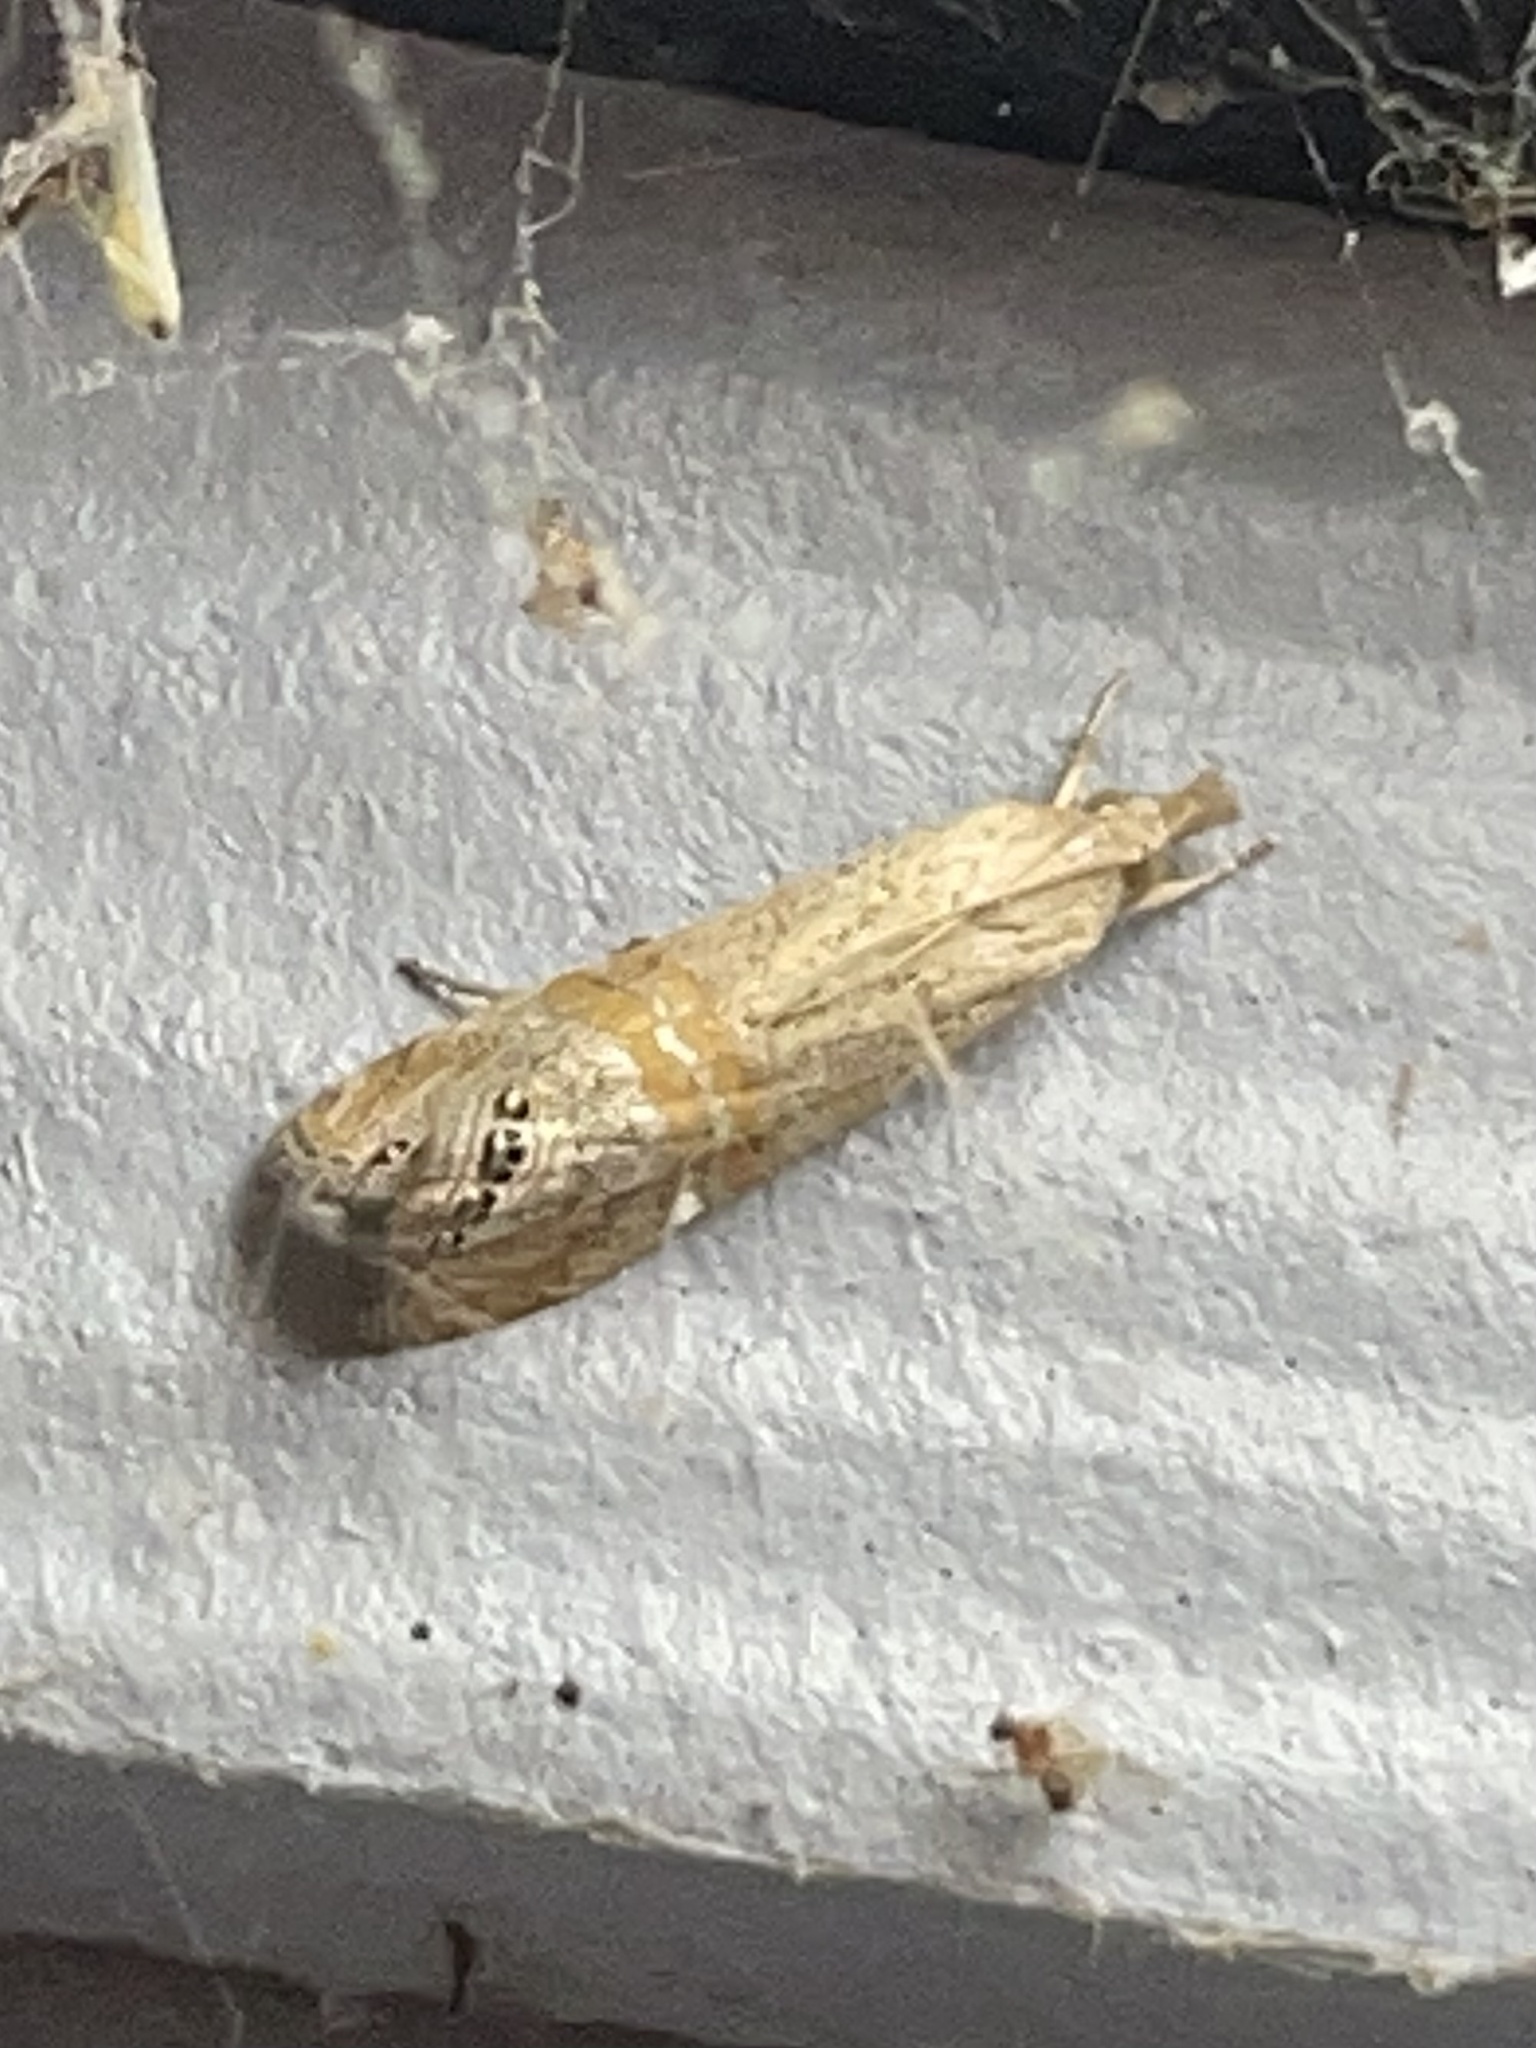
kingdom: Animalia
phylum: Arthropoda
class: Insecta
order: Lepidoptera
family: Crambidae
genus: Euchromius
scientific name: Euchromius ocellea
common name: Necklace veneer moth
